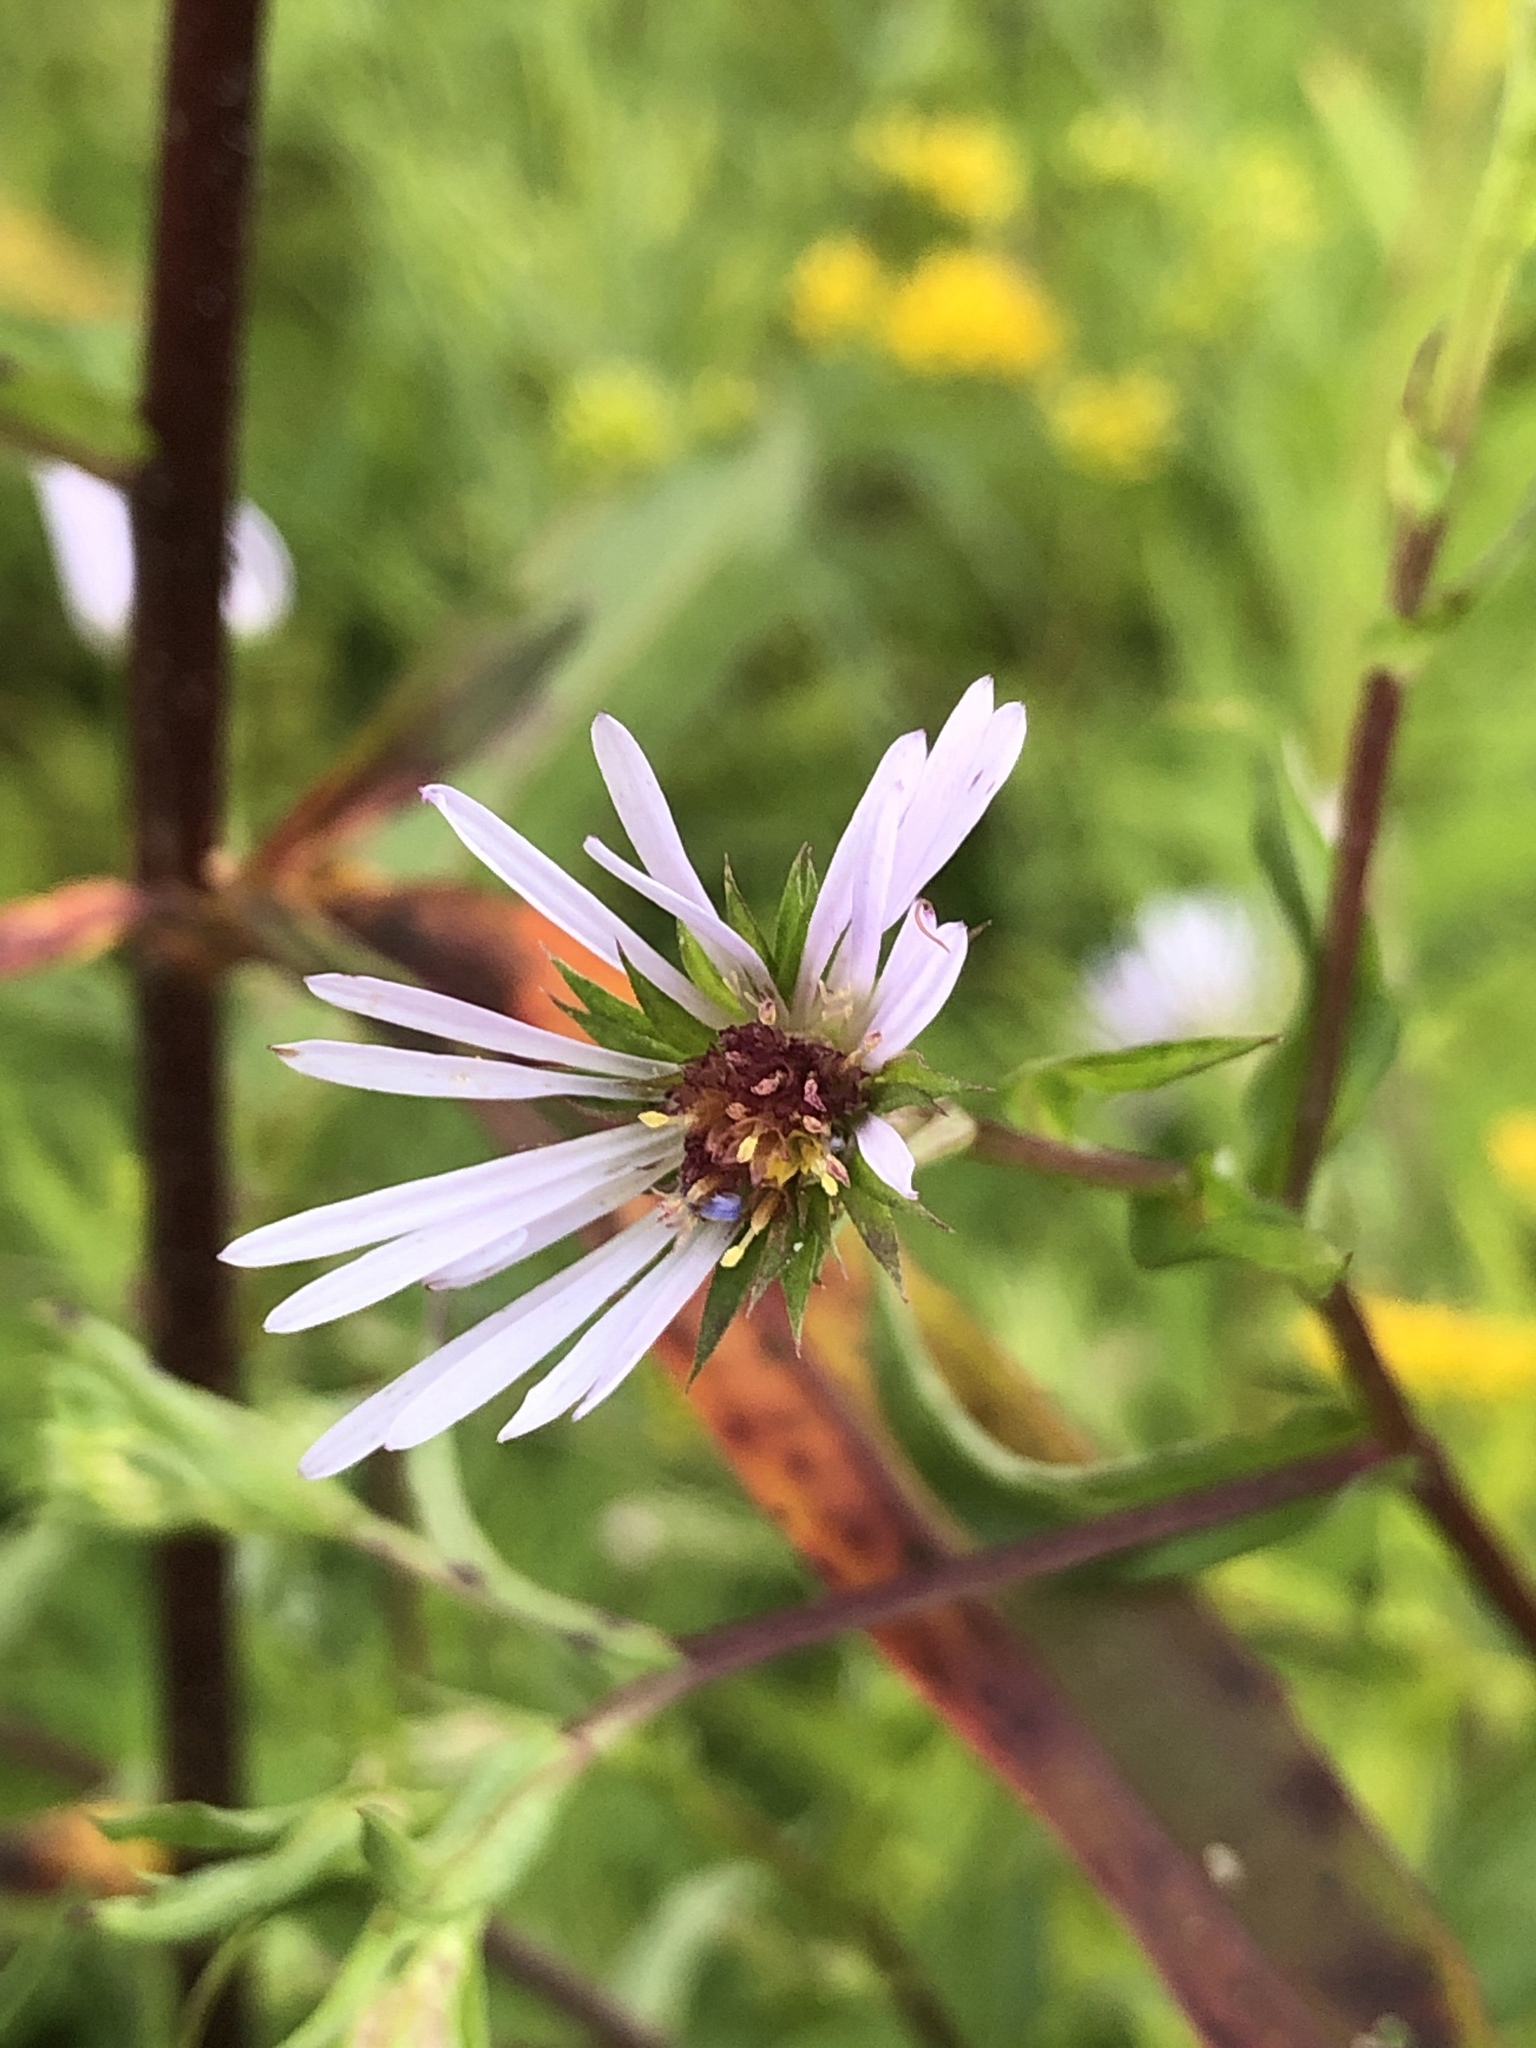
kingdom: Plantae
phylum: Tracheophyta
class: Magnoliopsida
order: Asterales
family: Asteraceae
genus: Symphyotrichum
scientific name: Symphyotrichum puniceum
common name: Bog aster
